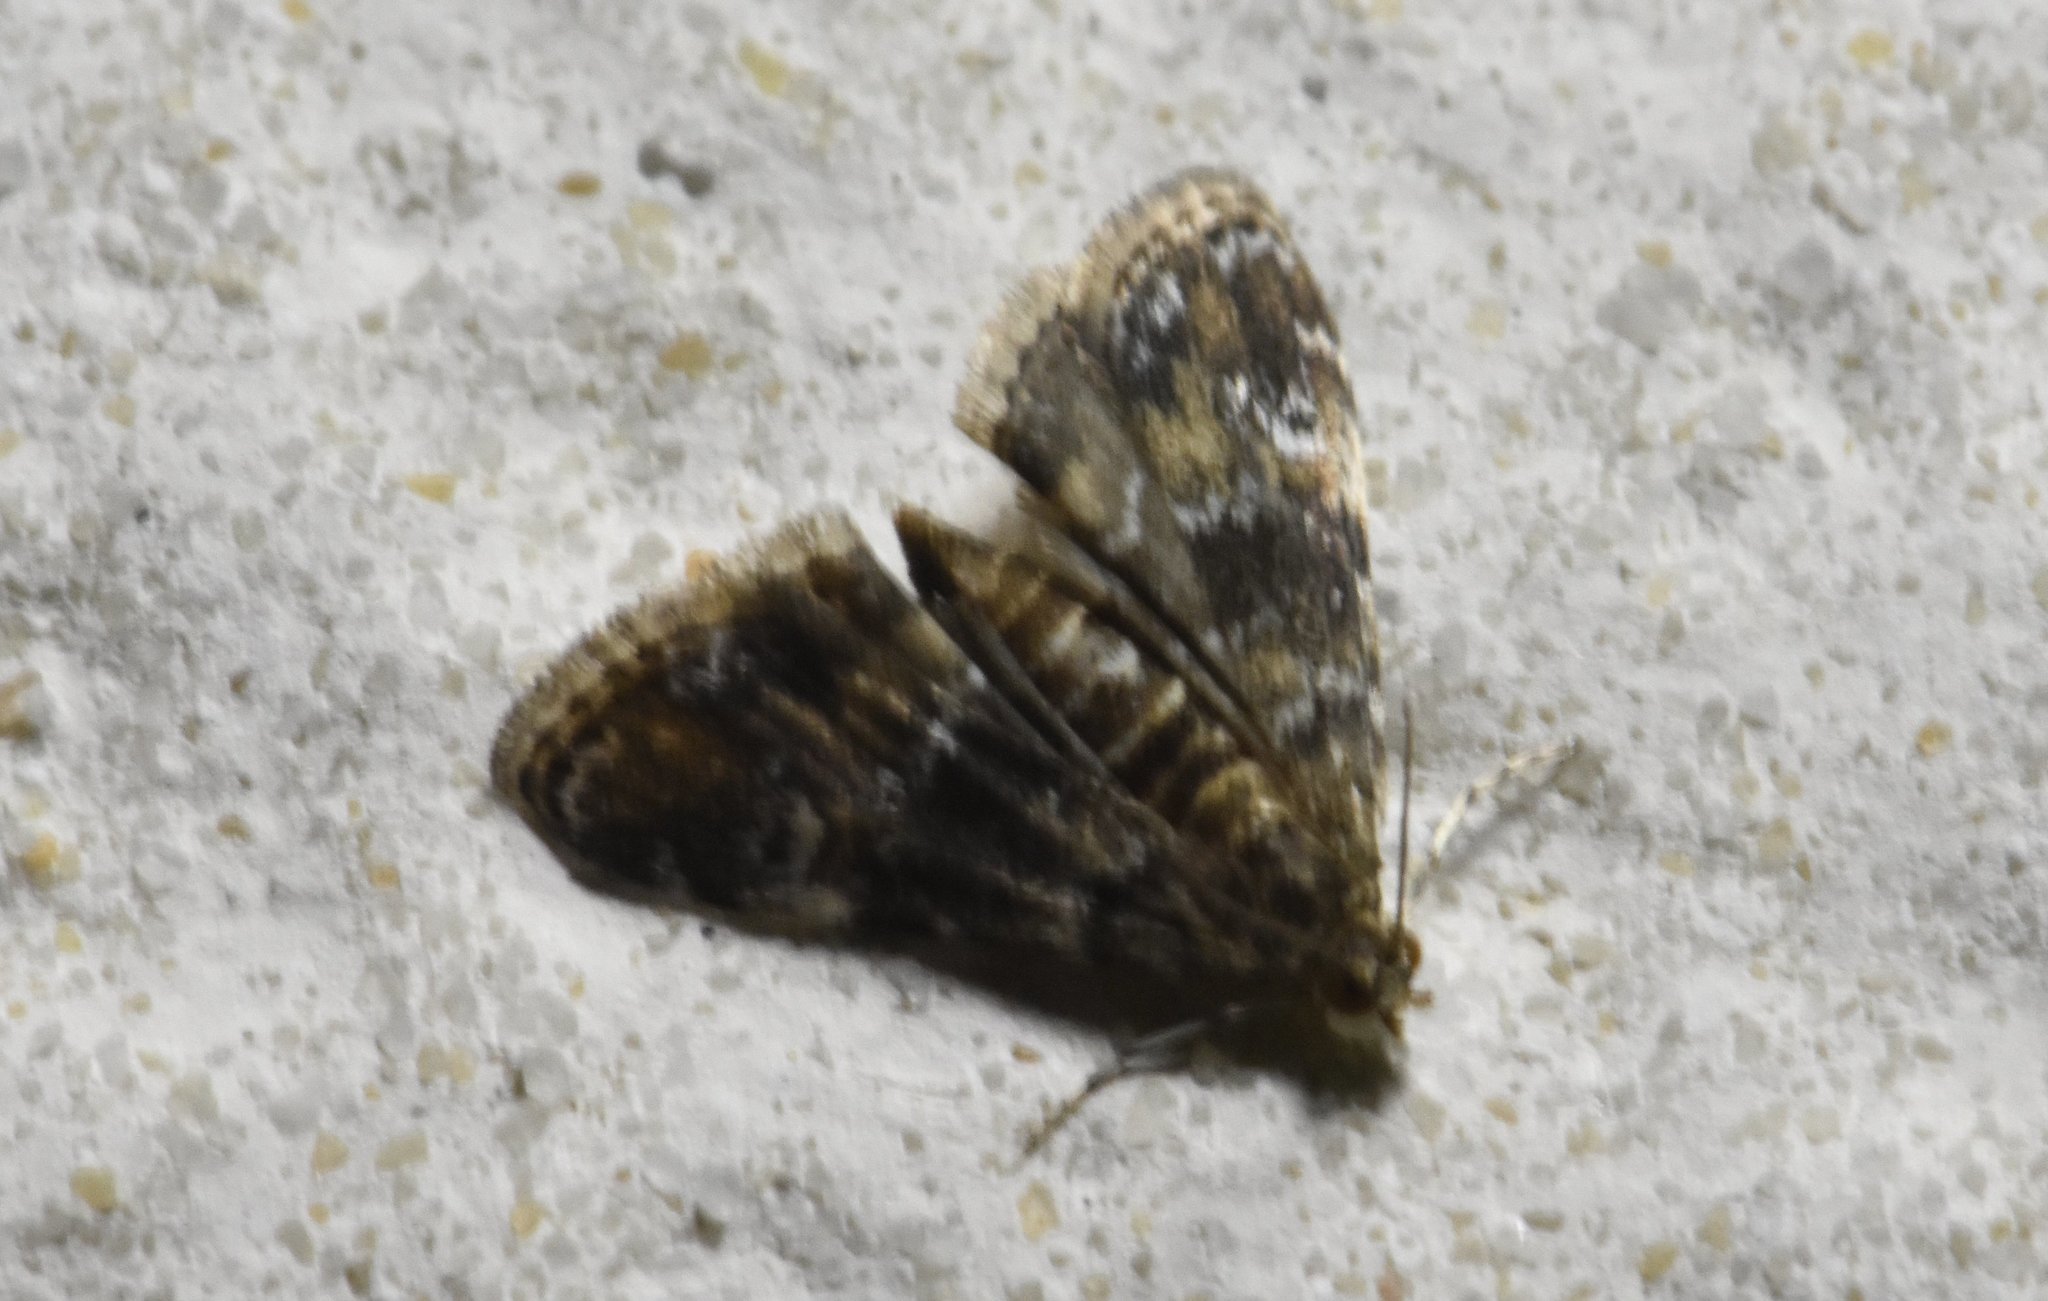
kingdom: Animalia
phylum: Arthropoda
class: Insecta
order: Lepidoptera
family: Crambidae
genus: Elophila
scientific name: Elophila obliteralis
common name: Waterlily leafcutter moth
